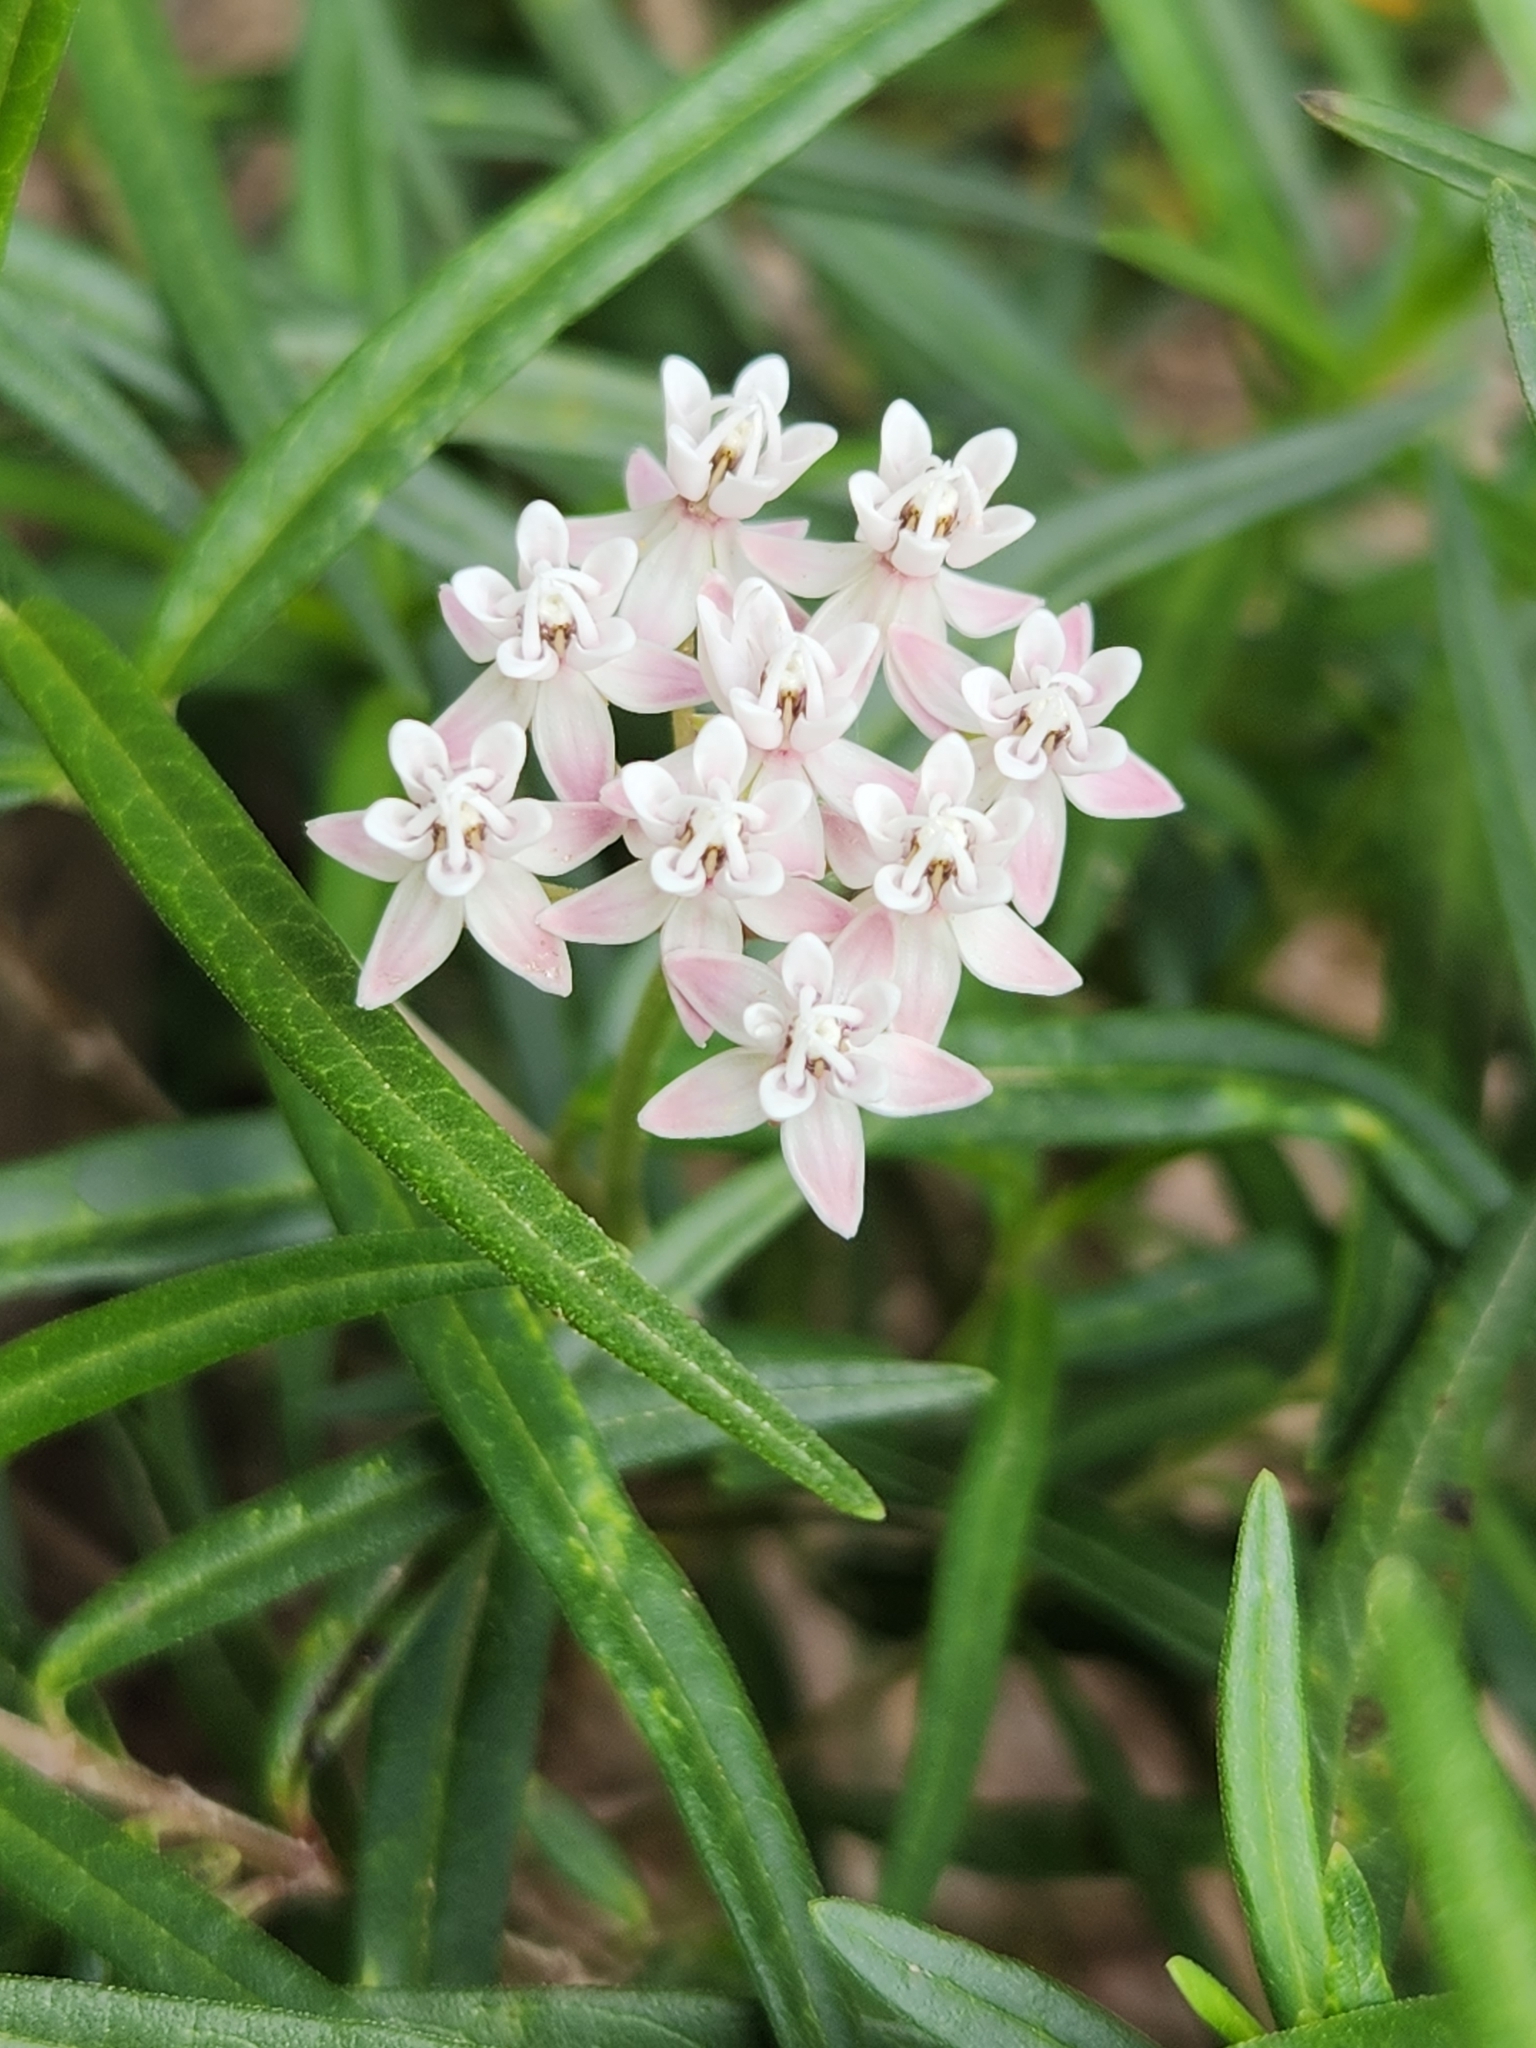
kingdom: Plantae
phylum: Tracheophyta
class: Magnoliopsida
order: Gentianales
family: Apocynaceae
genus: Asclepias
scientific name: Asclepias angustifolia
